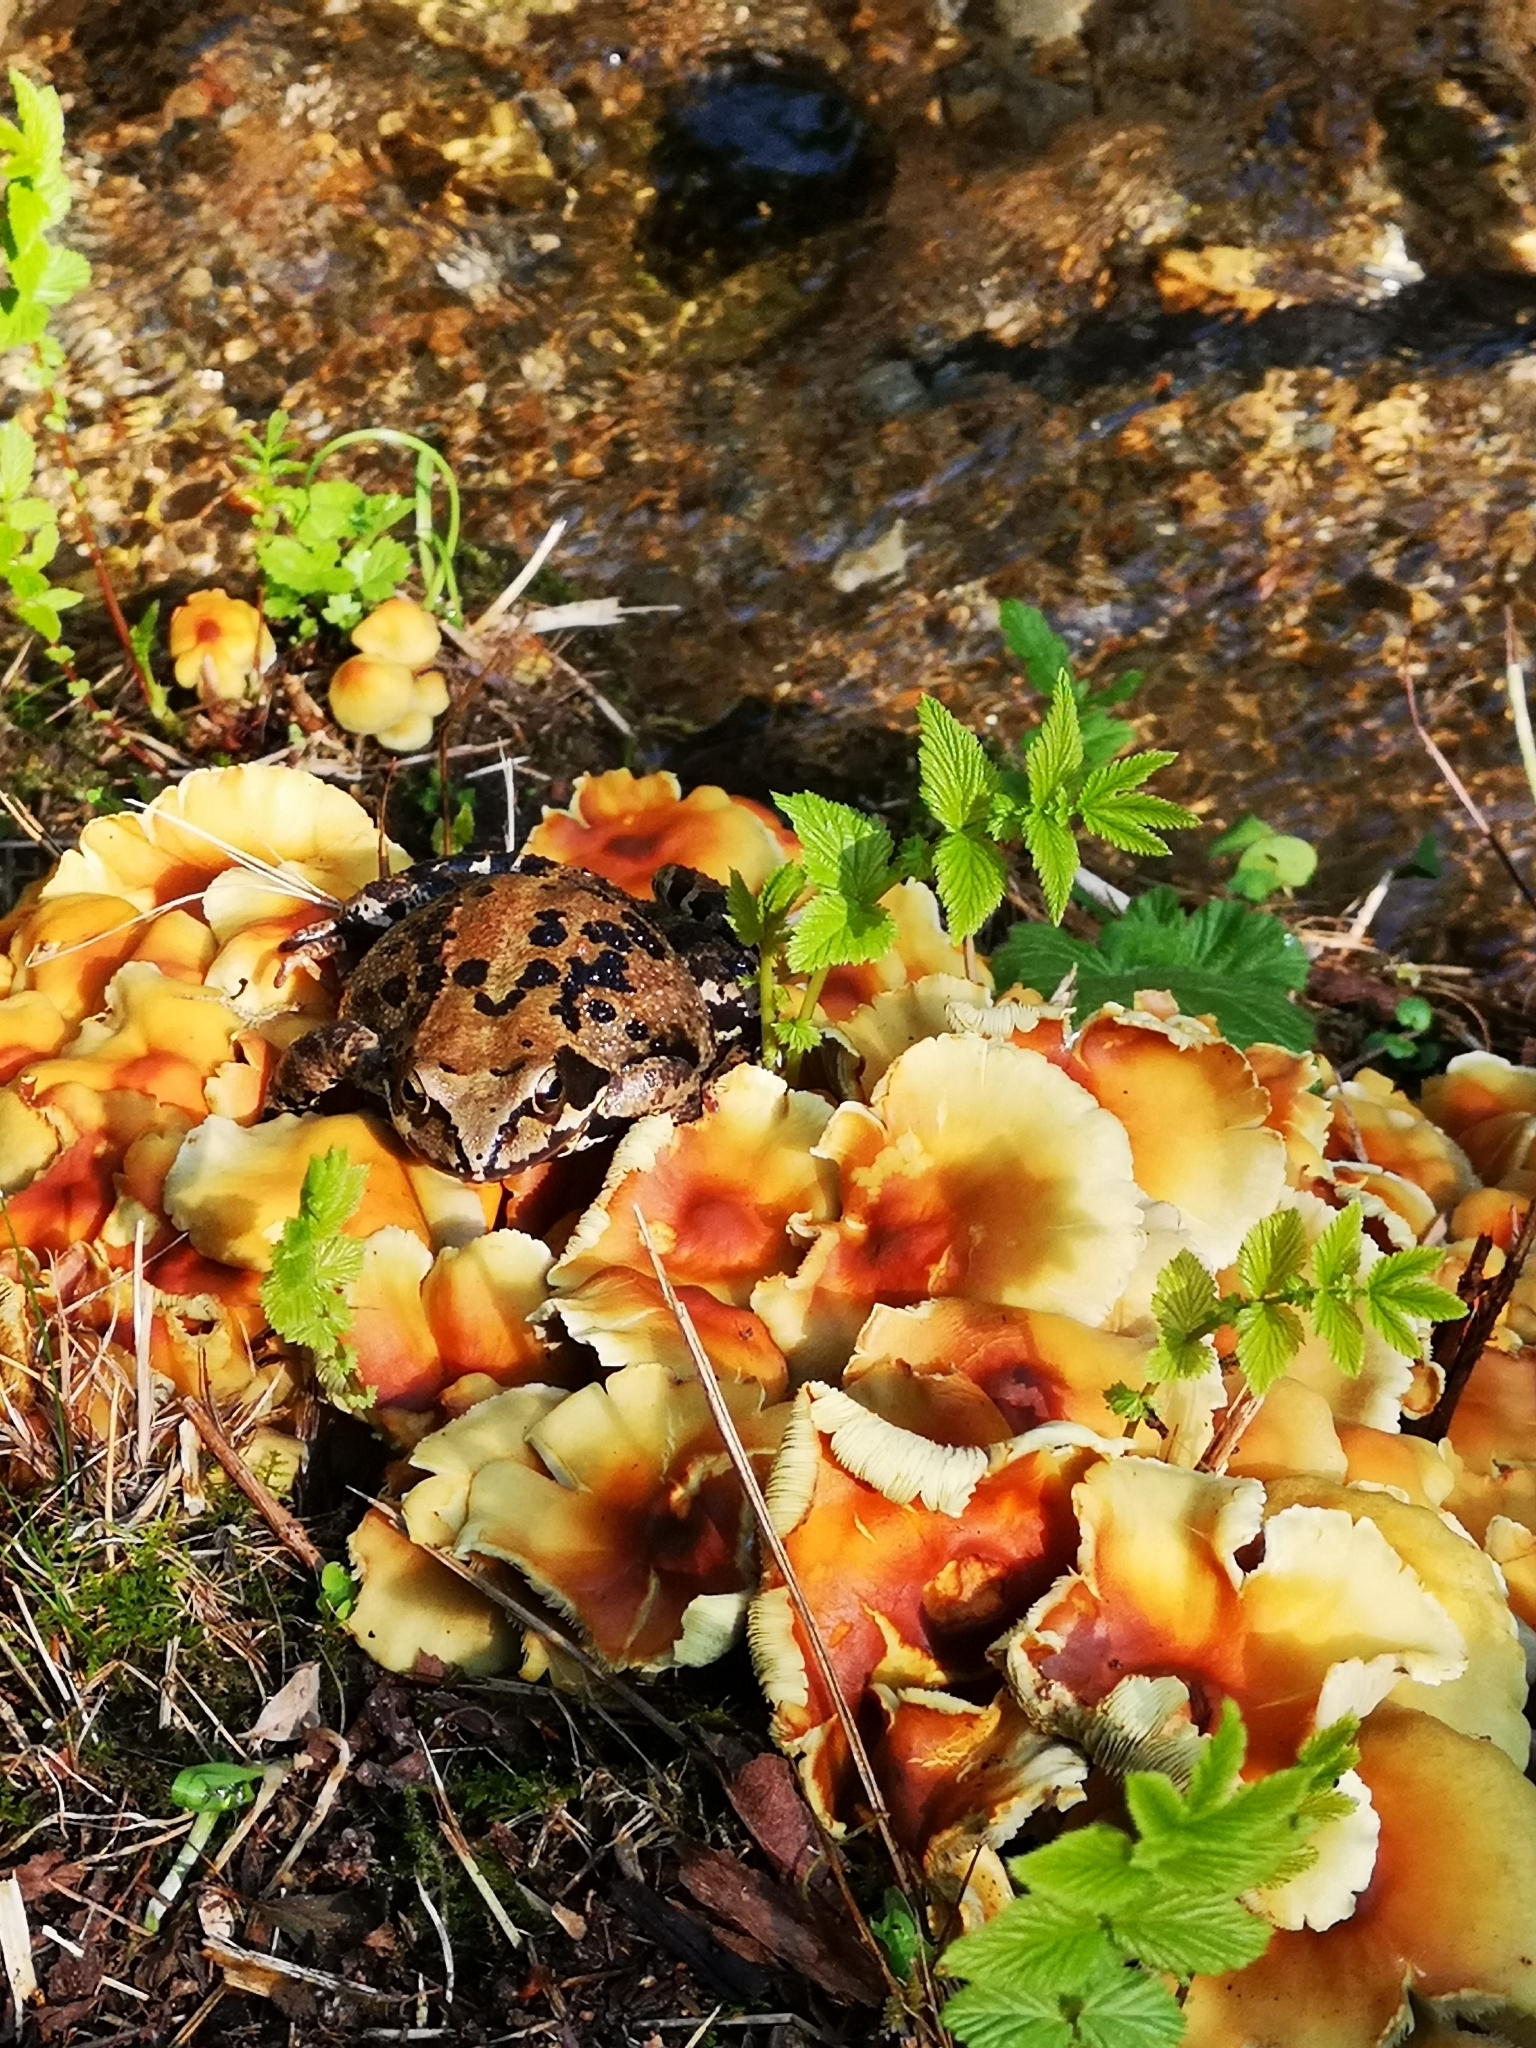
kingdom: Animalia
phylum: Chordata
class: Amphibia
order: Anura
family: Ranidae
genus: Rana
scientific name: Rana temporaria
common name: Common frog
